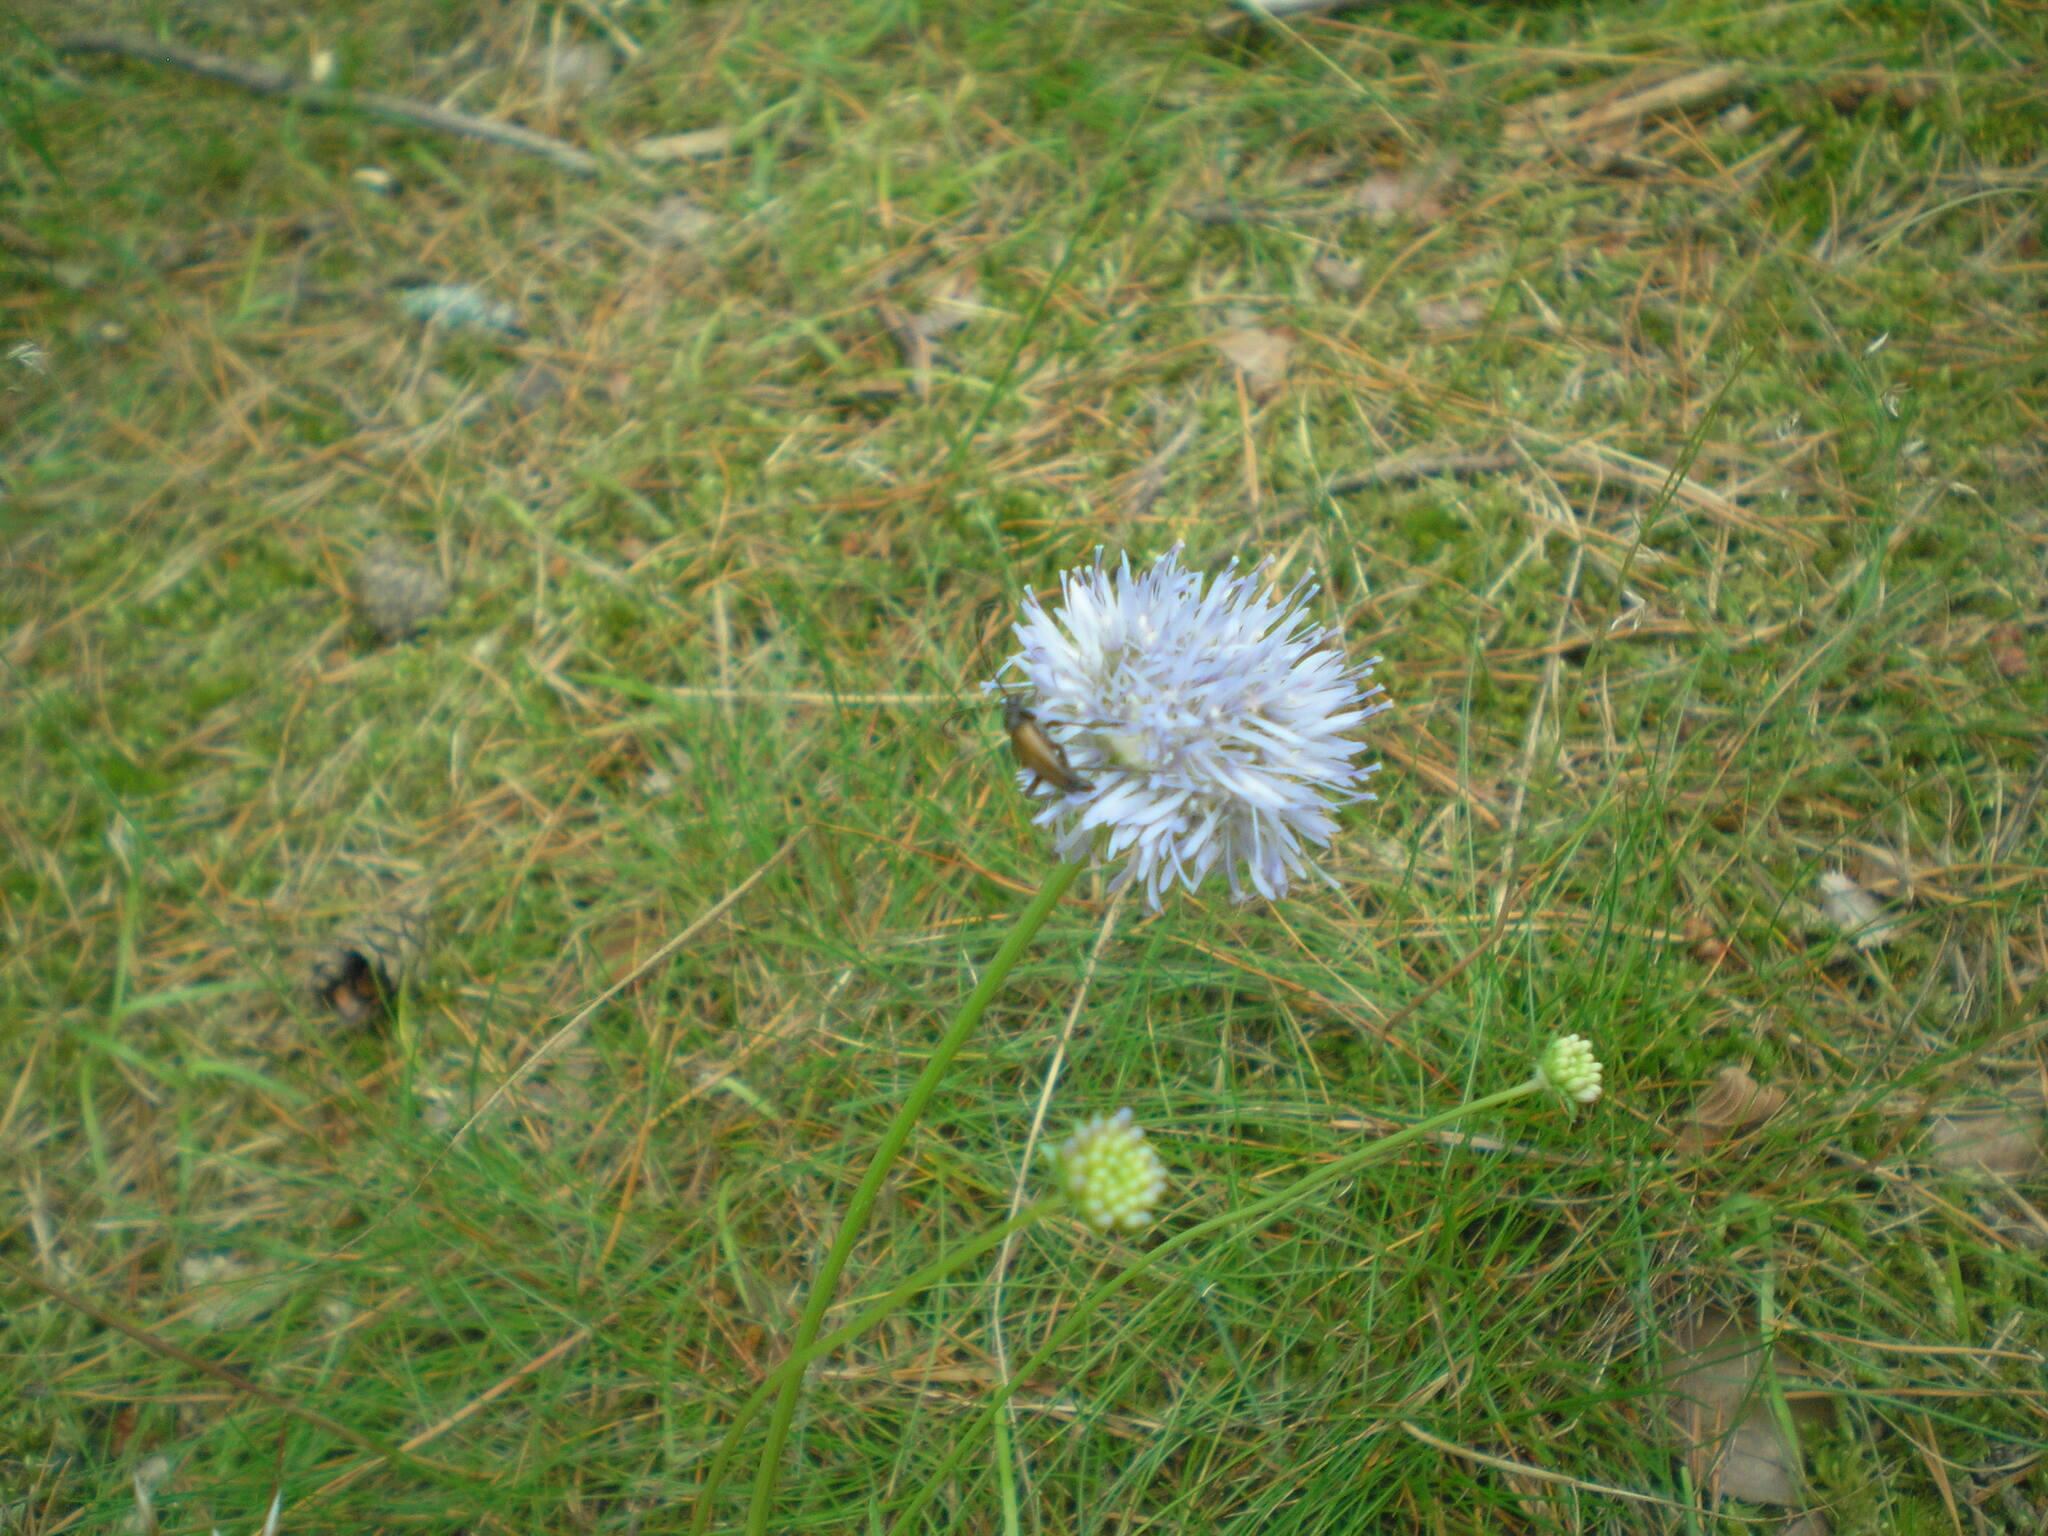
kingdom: Plantae
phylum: Tracheophyta
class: Magnoliopsida
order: Asterales
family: Campanulaceae
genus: Jasione
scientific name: Jasione montana
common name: Sheep's-bit
